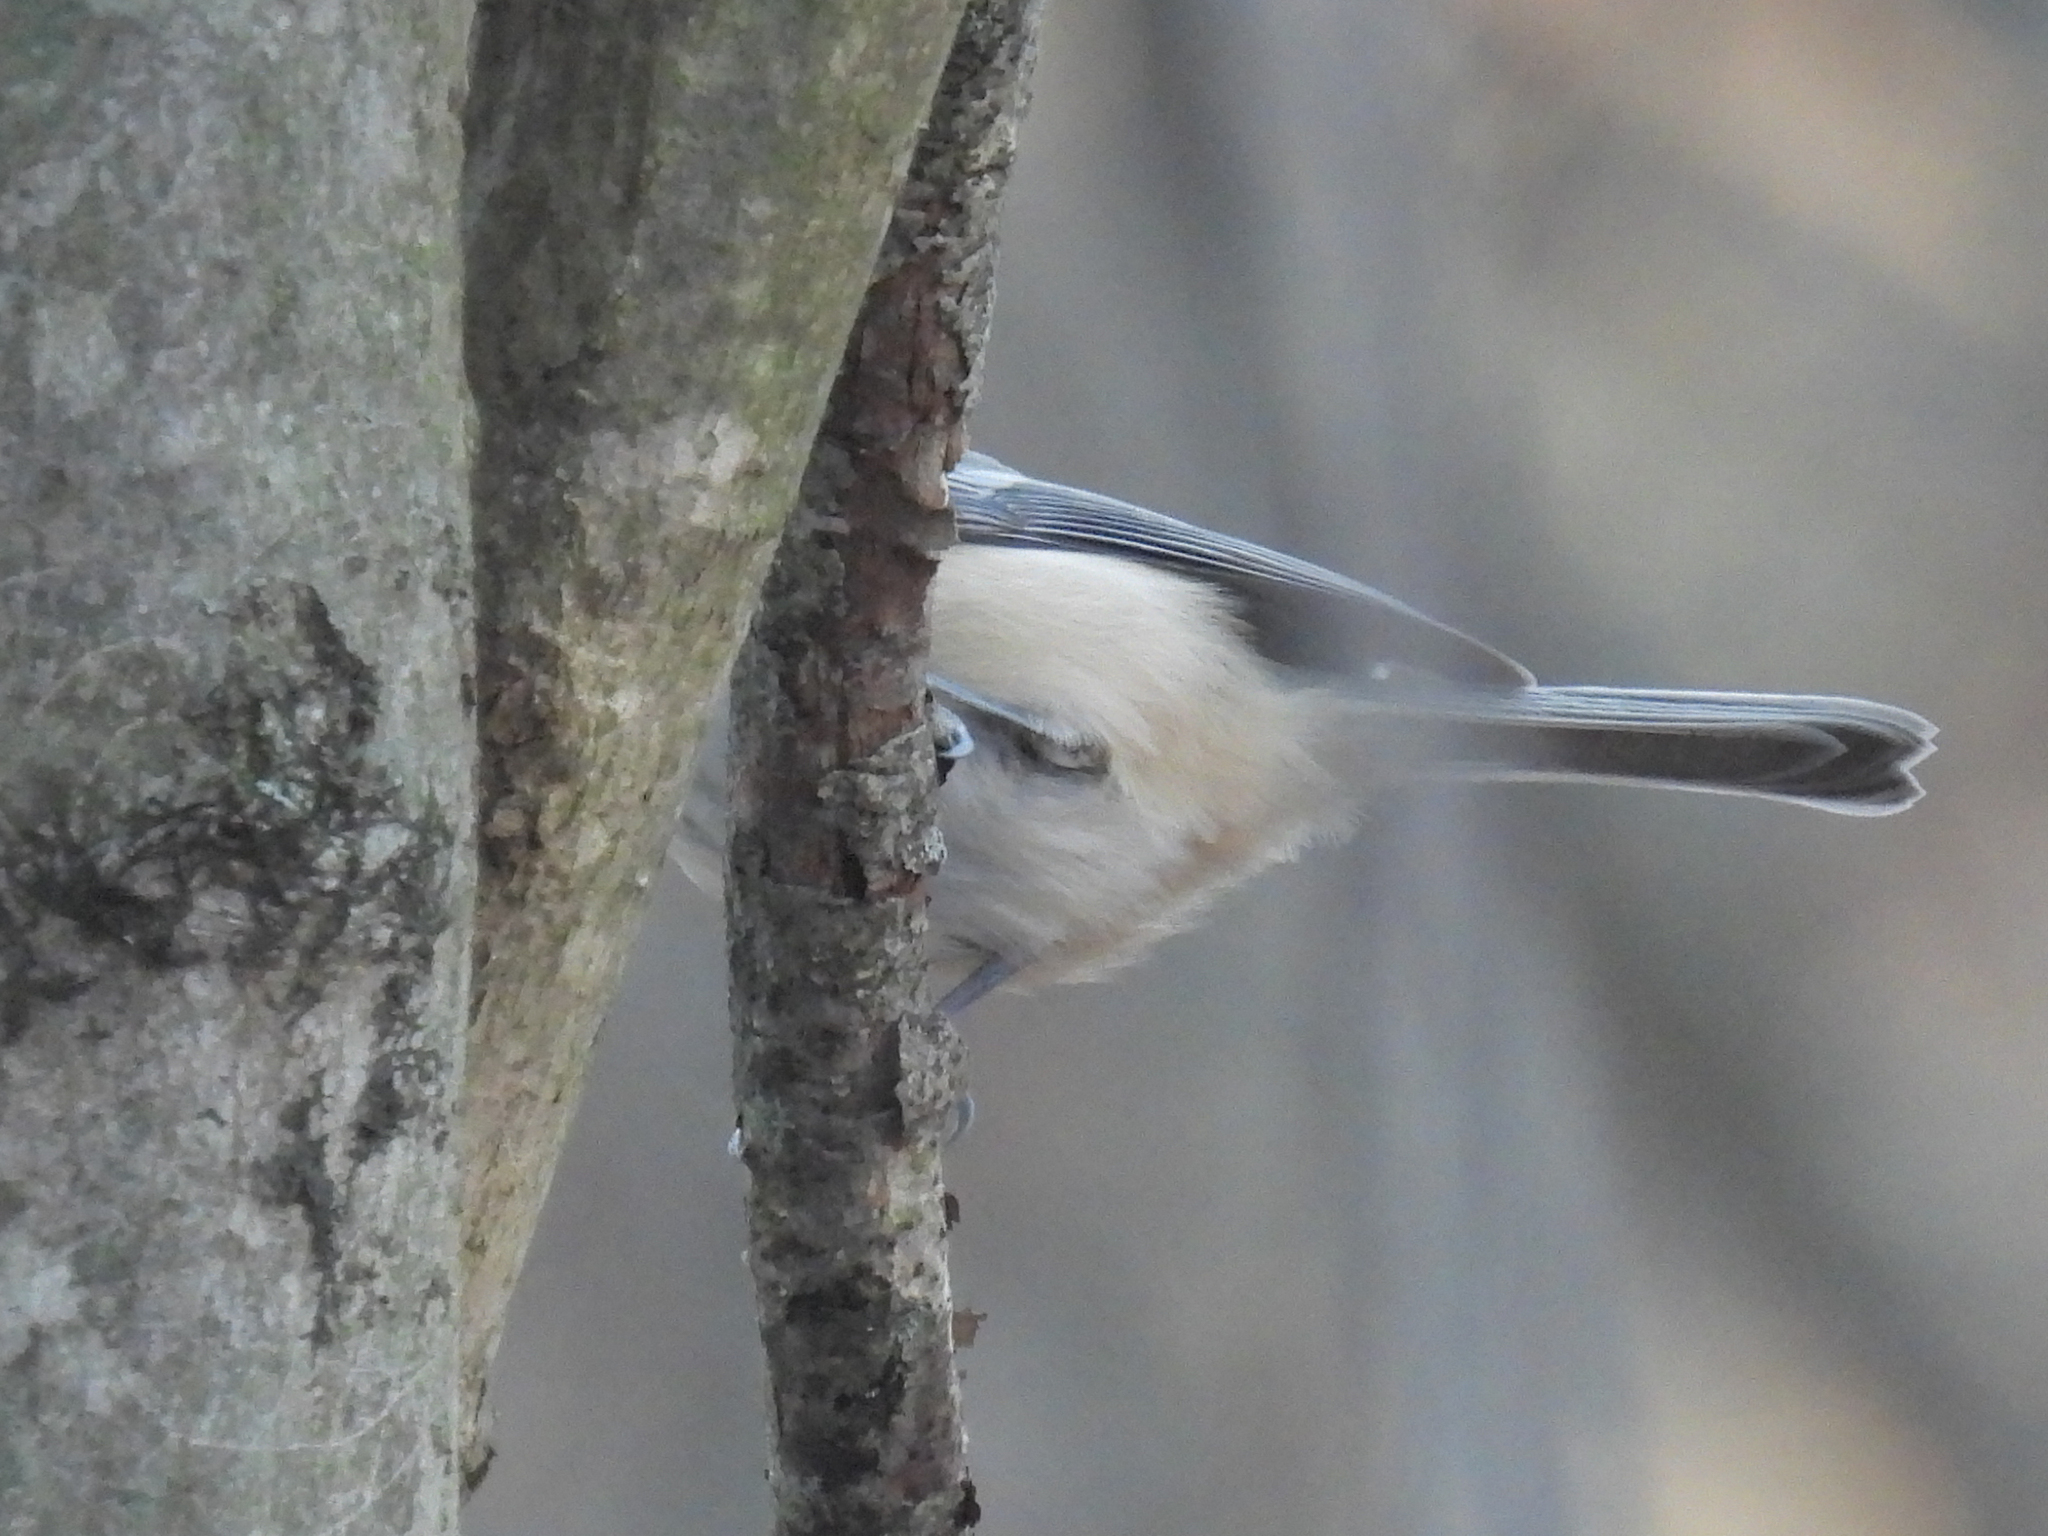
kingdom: Animalia
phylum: Chordata
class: Aves
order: Passeriformes
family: Paridae
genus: Baeolophus
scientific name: Baeolophus bicolor
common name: Tufted titmouse
